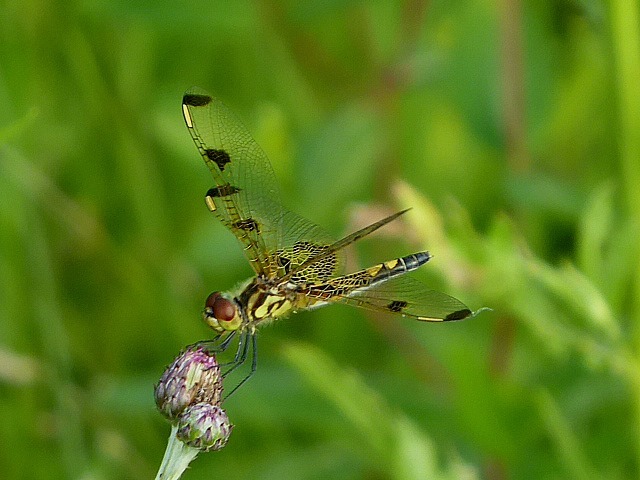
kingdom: Animalia
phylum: Arthropoda
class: Insecta
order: Odonata
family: Libellulidae
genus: Celithemis
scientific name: Celithemis elisa
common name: Calico pennant
